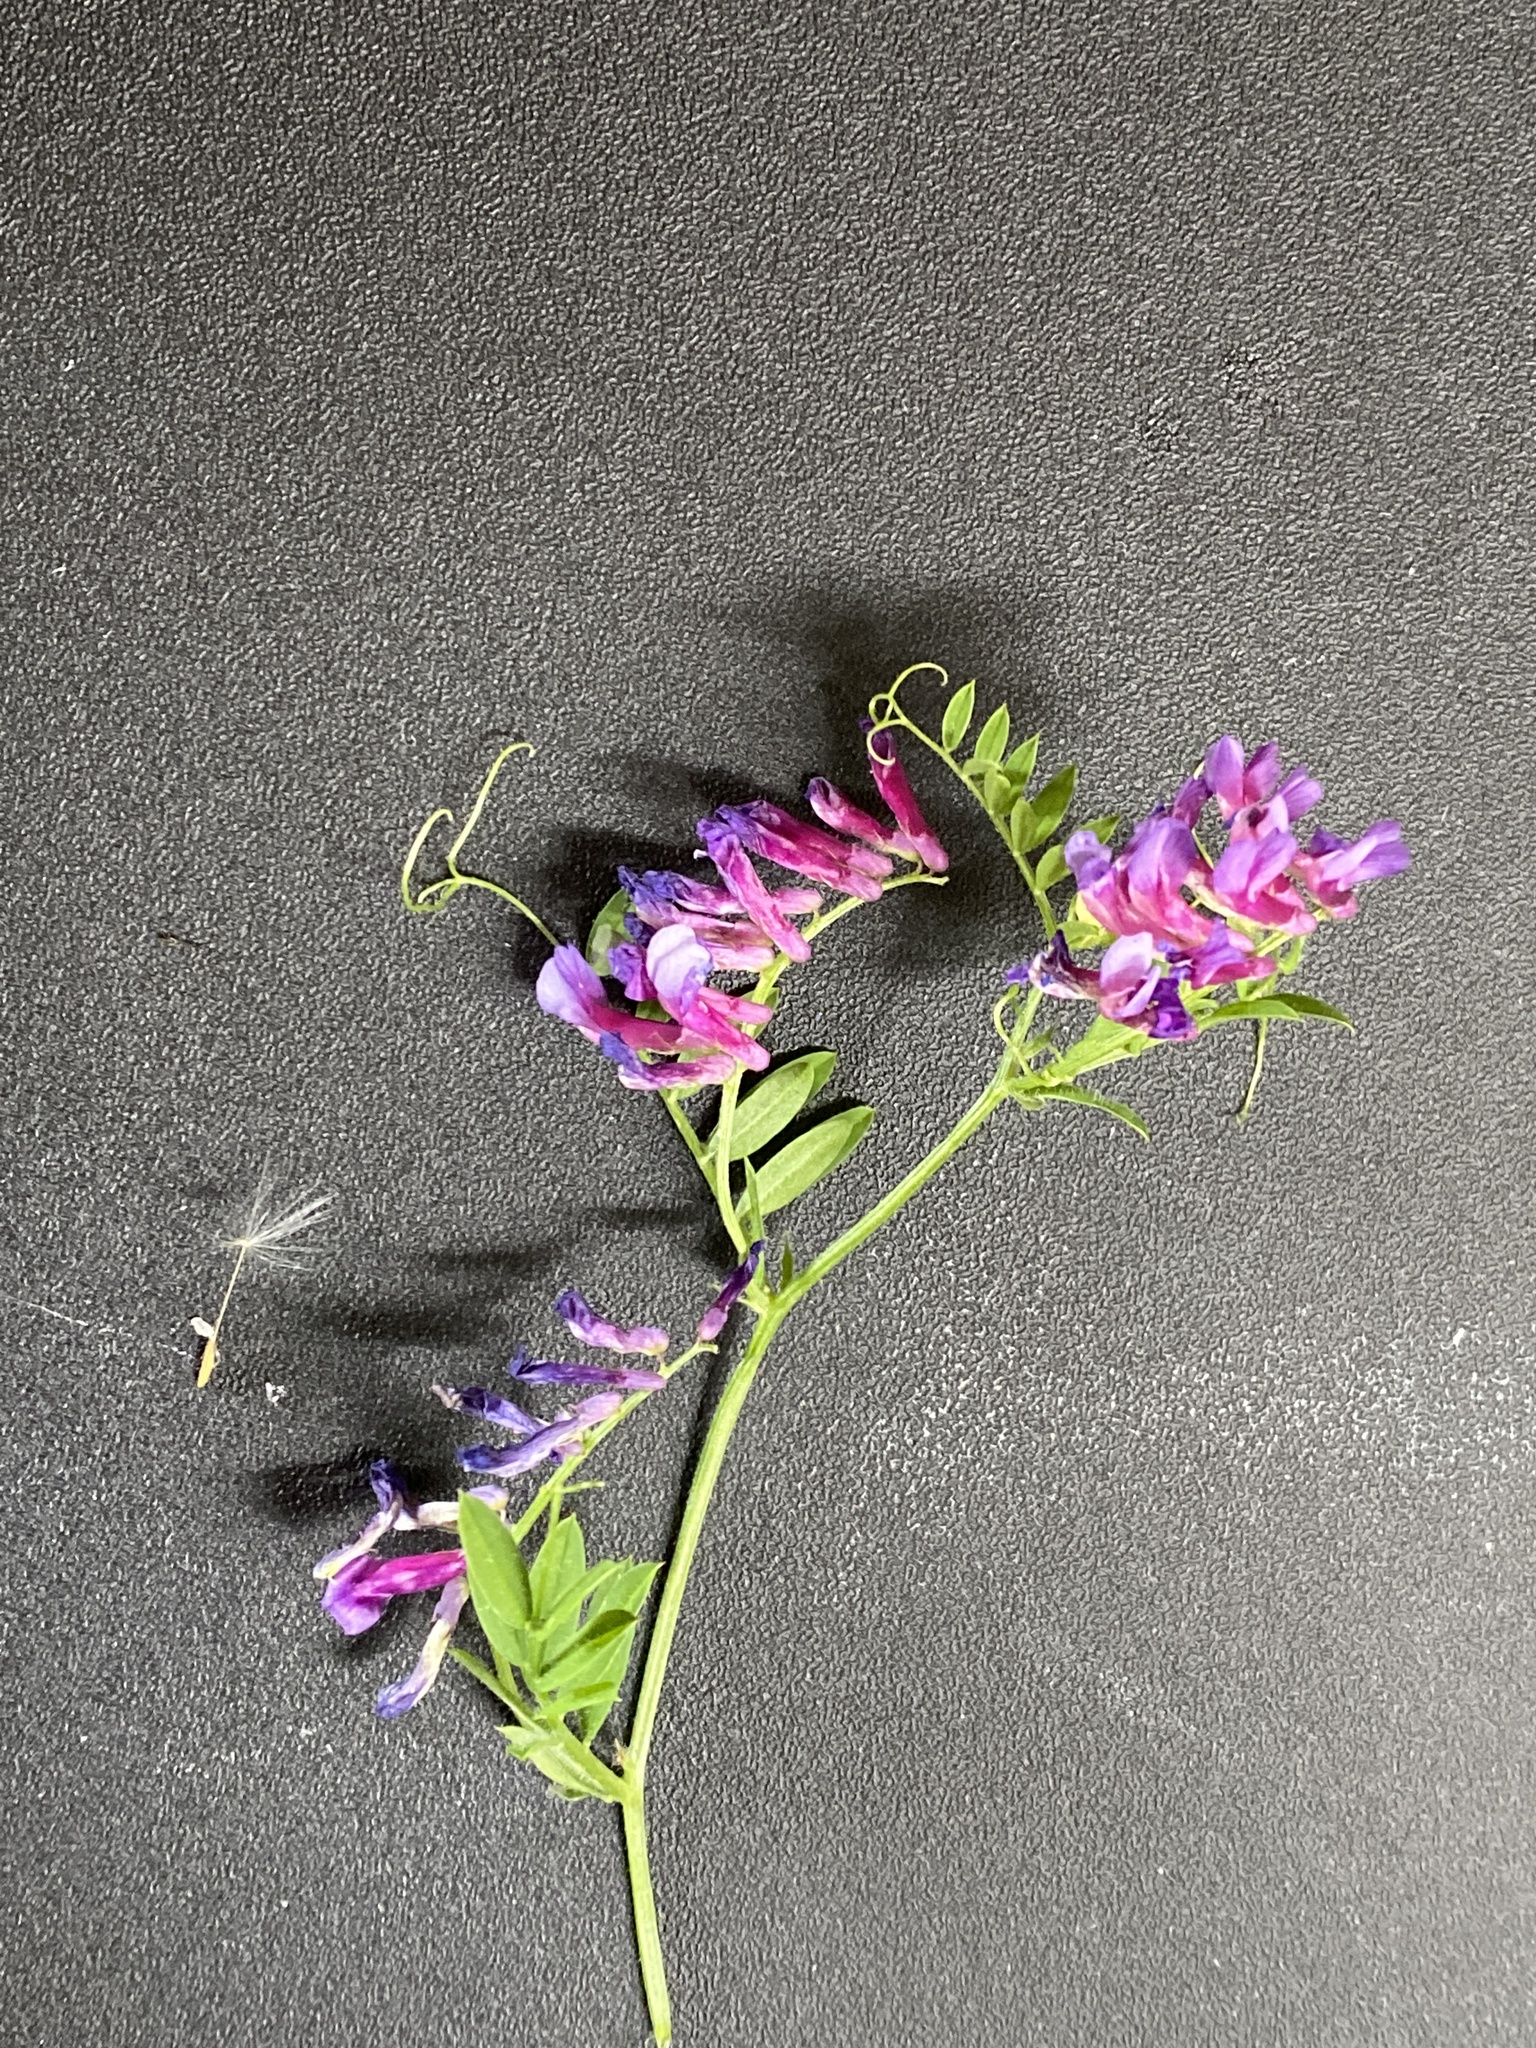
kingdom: Plantae
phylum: Tracheophyta
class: Magnoliopsida
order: Fabales
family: Fabaceae
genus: Vicia
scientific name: Vicia villosa
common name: Fodder vetch
